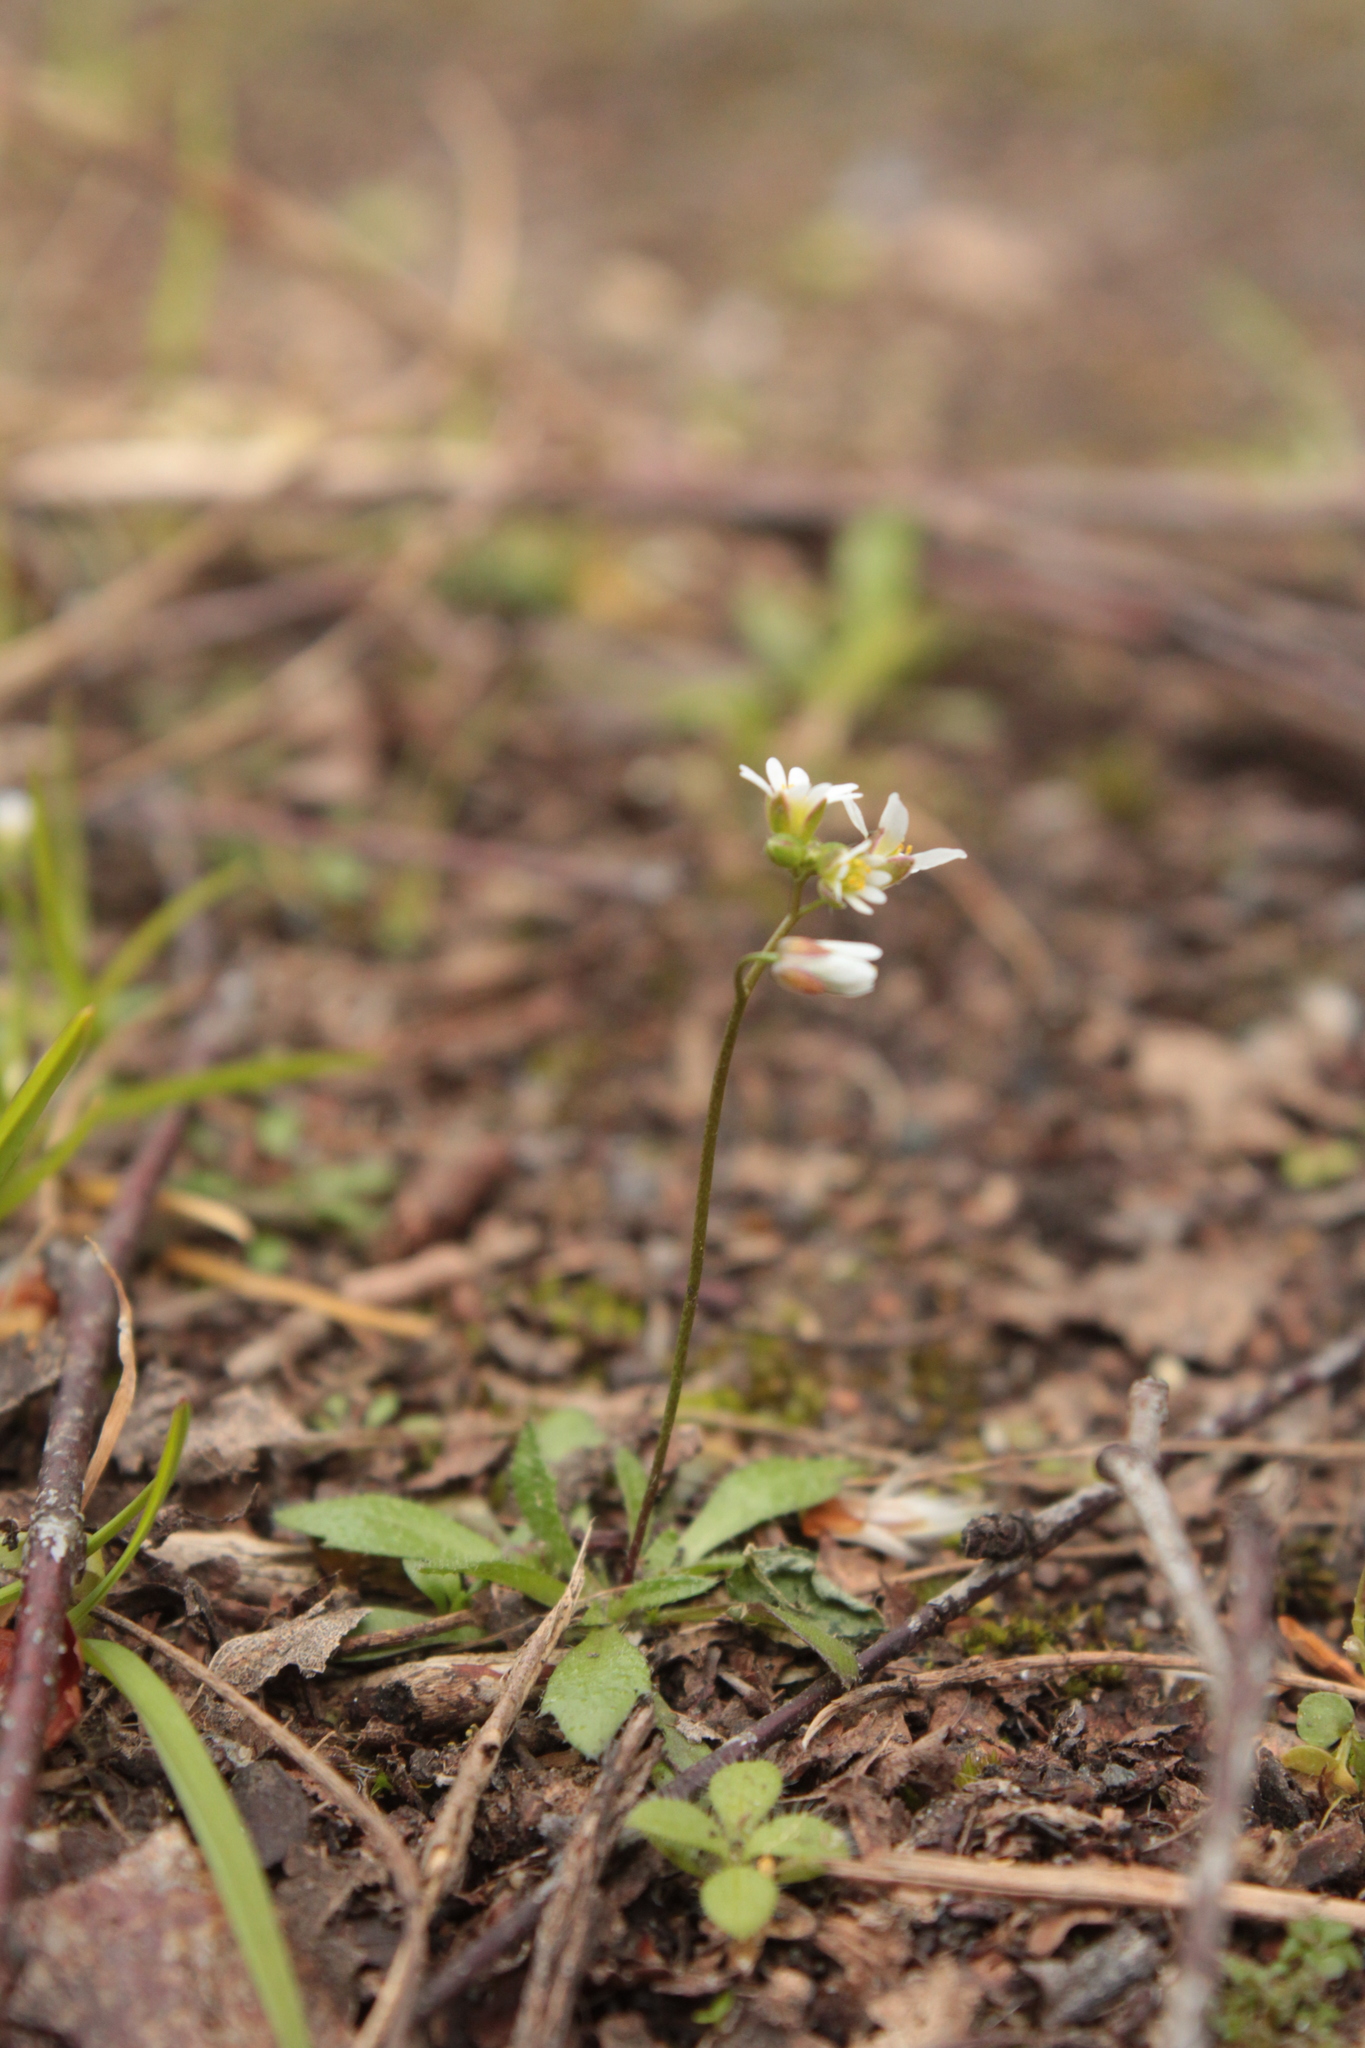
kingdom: Plantae
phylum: Tracheophyta
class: Magnoliopsida
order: Brassicales
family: Brassicaceae
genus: Draba
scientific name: Draba verna
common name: Spring draba
